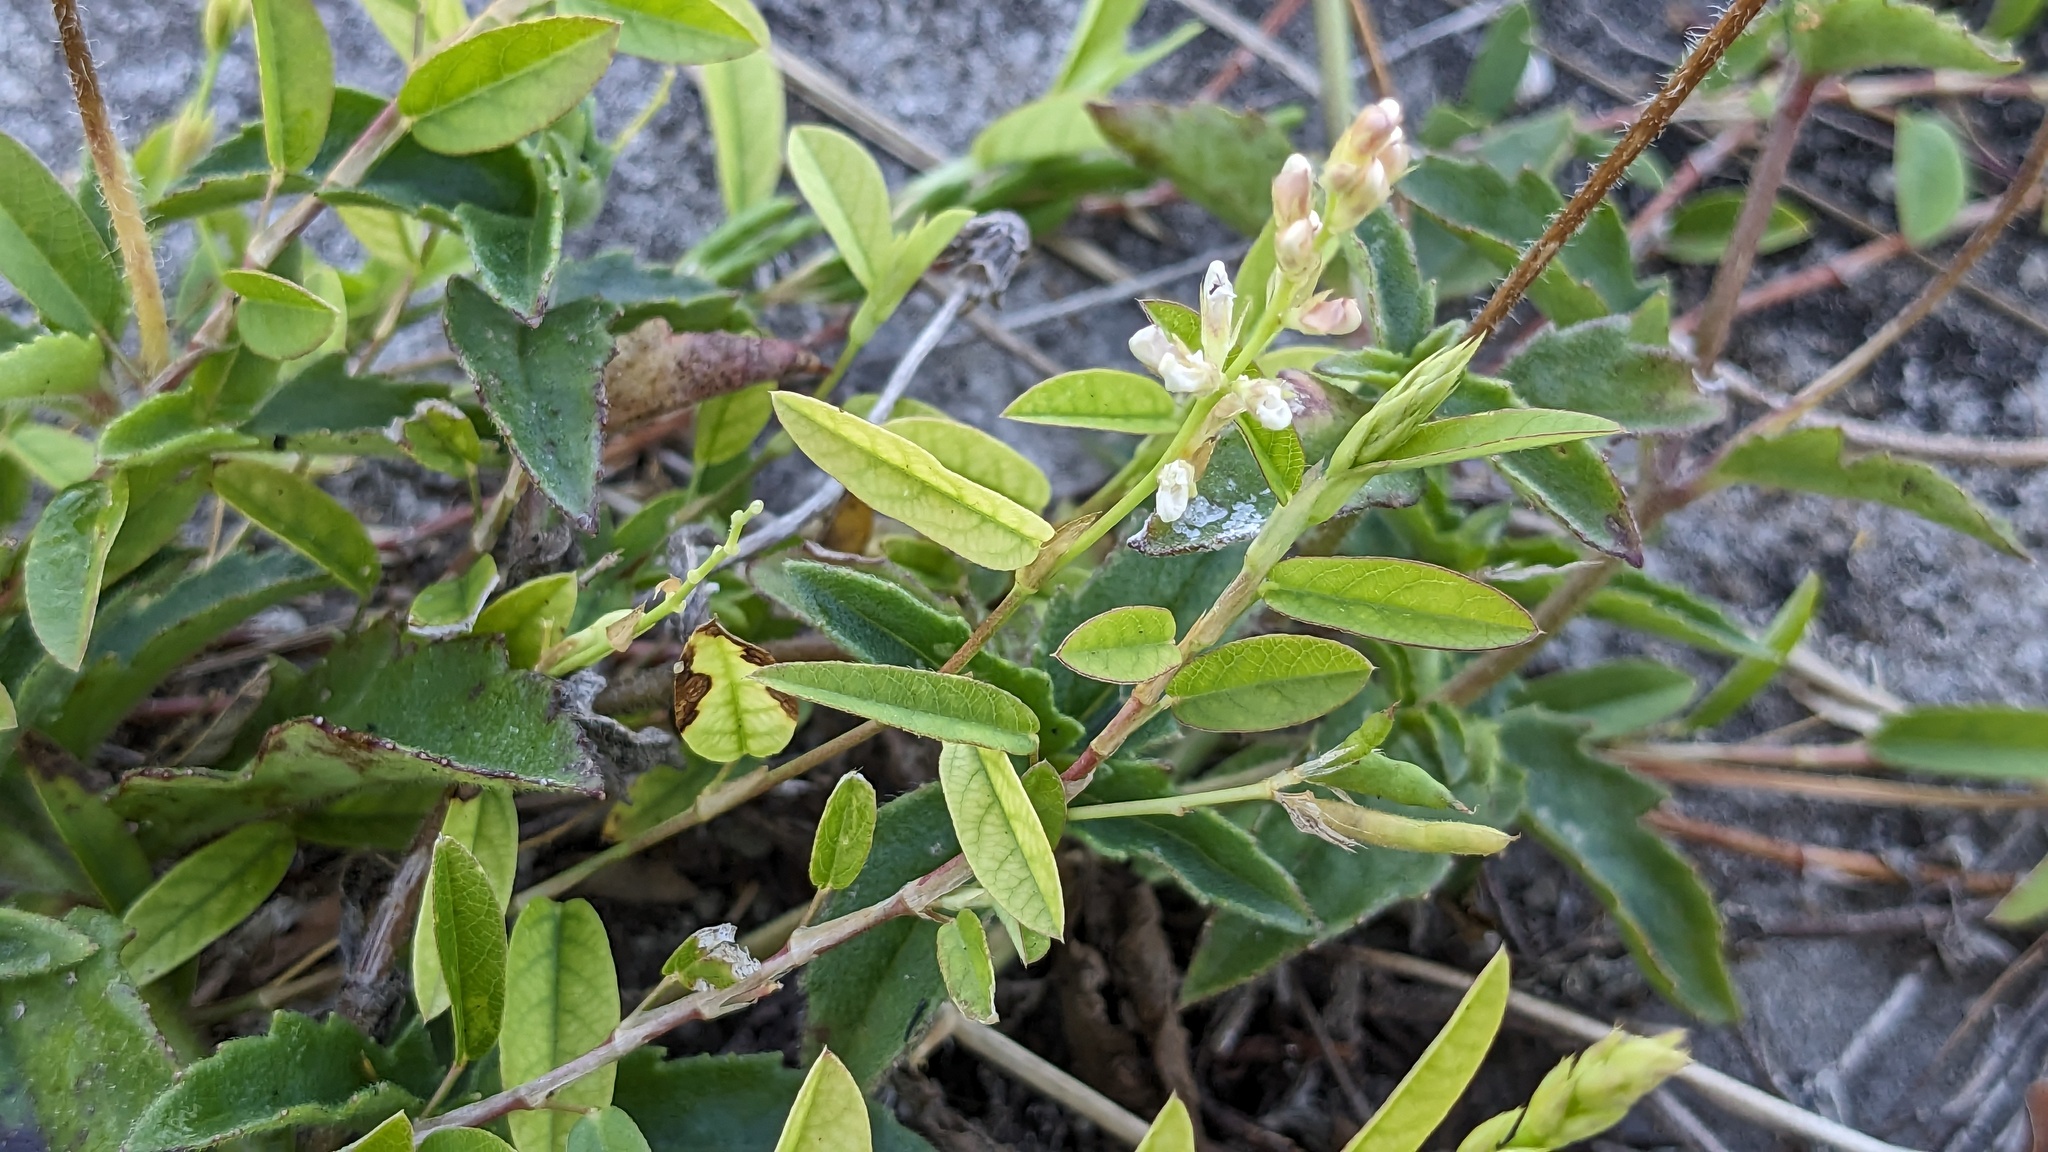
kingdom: Plantae
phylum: Tracheophyta
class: Magnoliopsida
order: Fabales
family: Fabaceae
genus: Alysicarpus
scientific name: Alysicarpus vaginalis
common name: White moneywort
